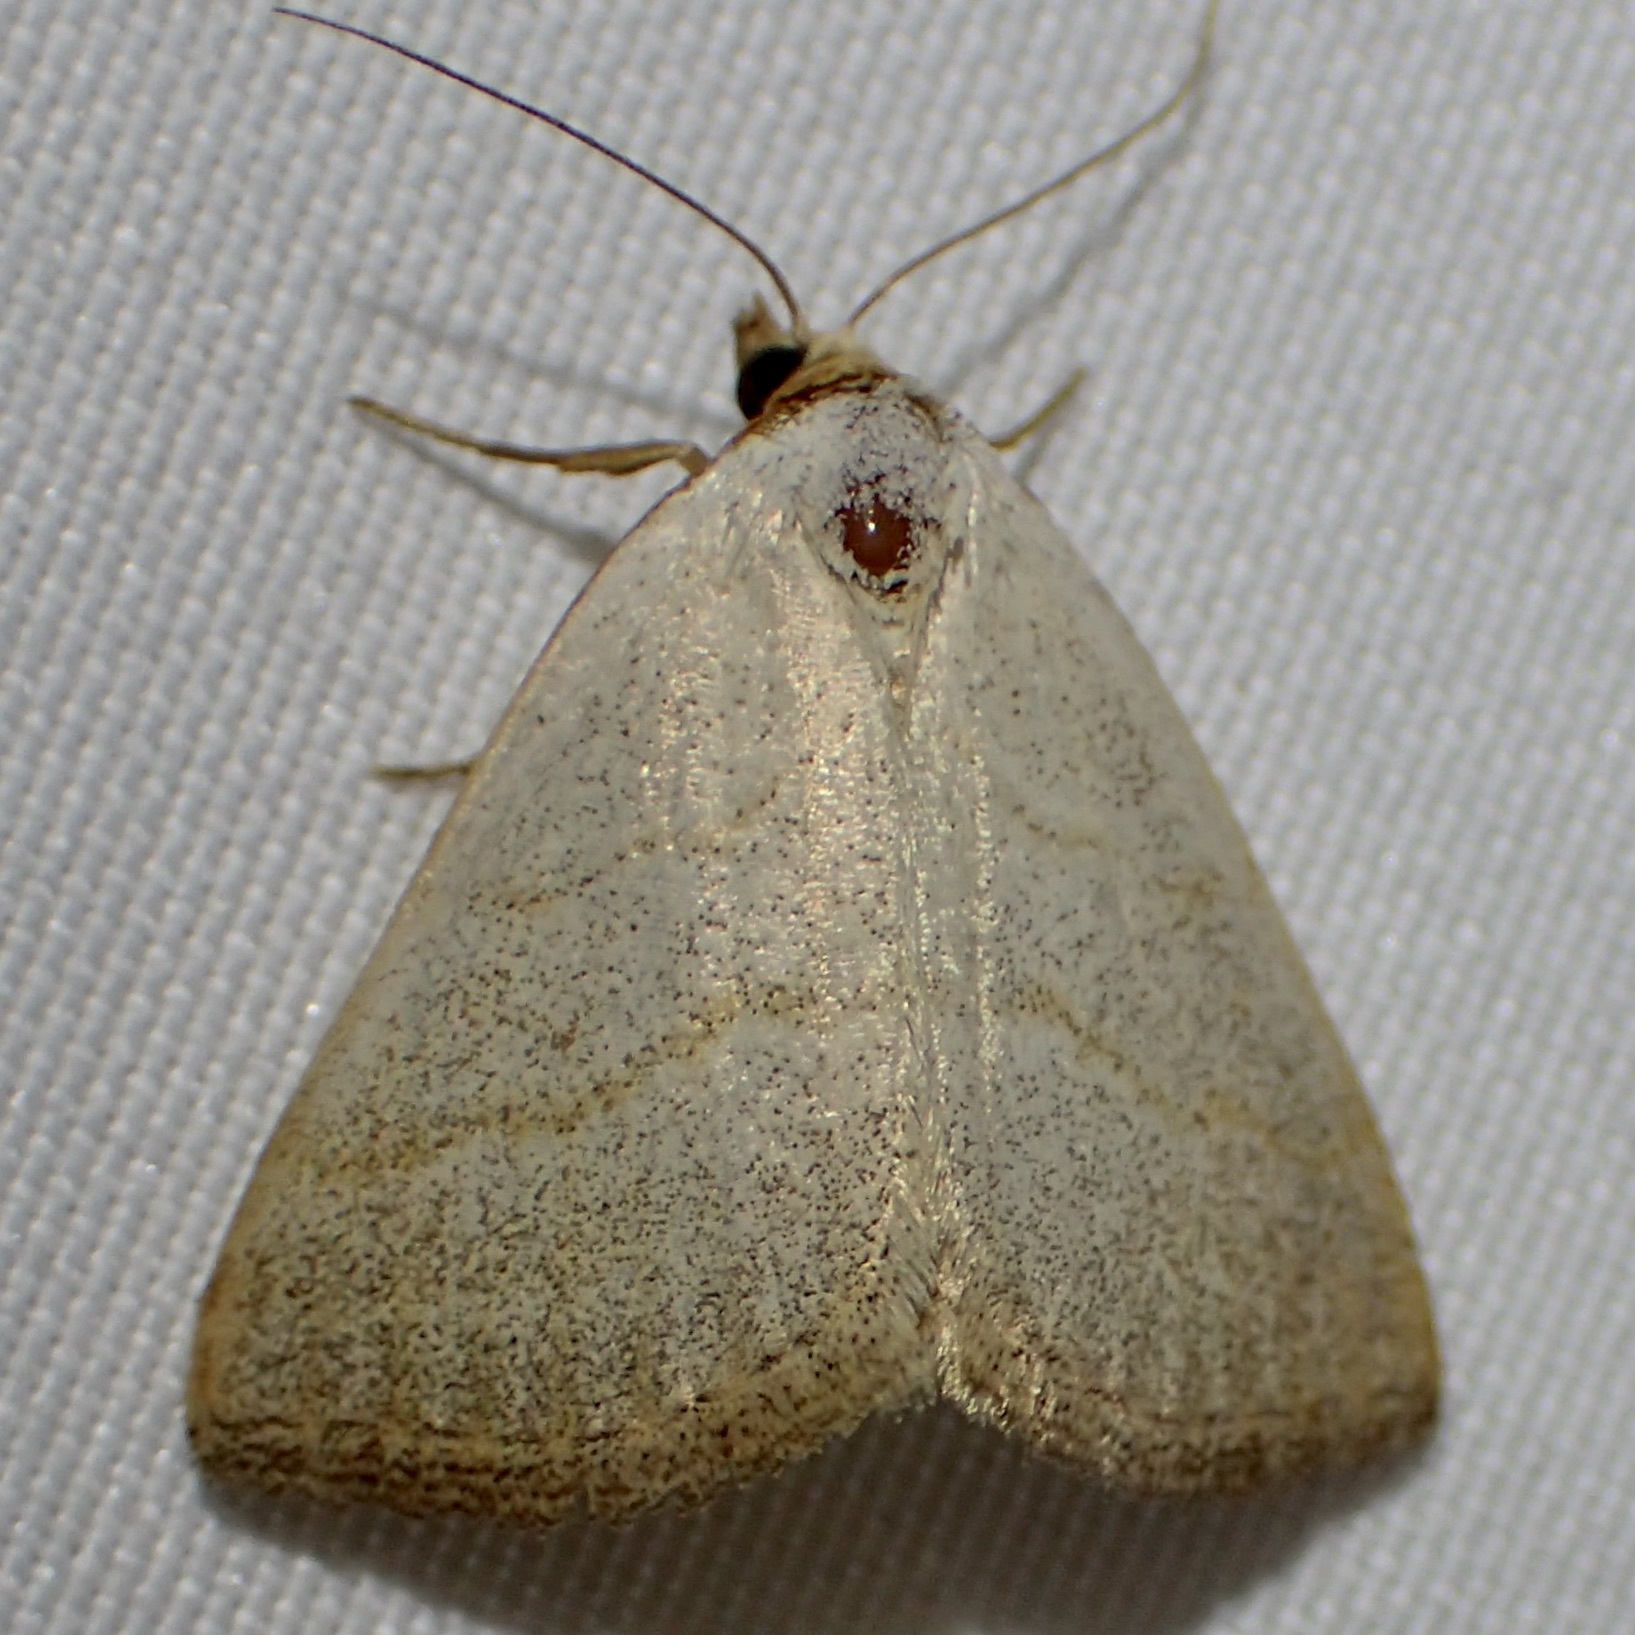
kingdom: Animalia
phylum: Arthropoda
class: Insecta
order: Lepidoptera
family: Erebidae
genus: Oxycilla
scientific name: Oxycilla tripla
